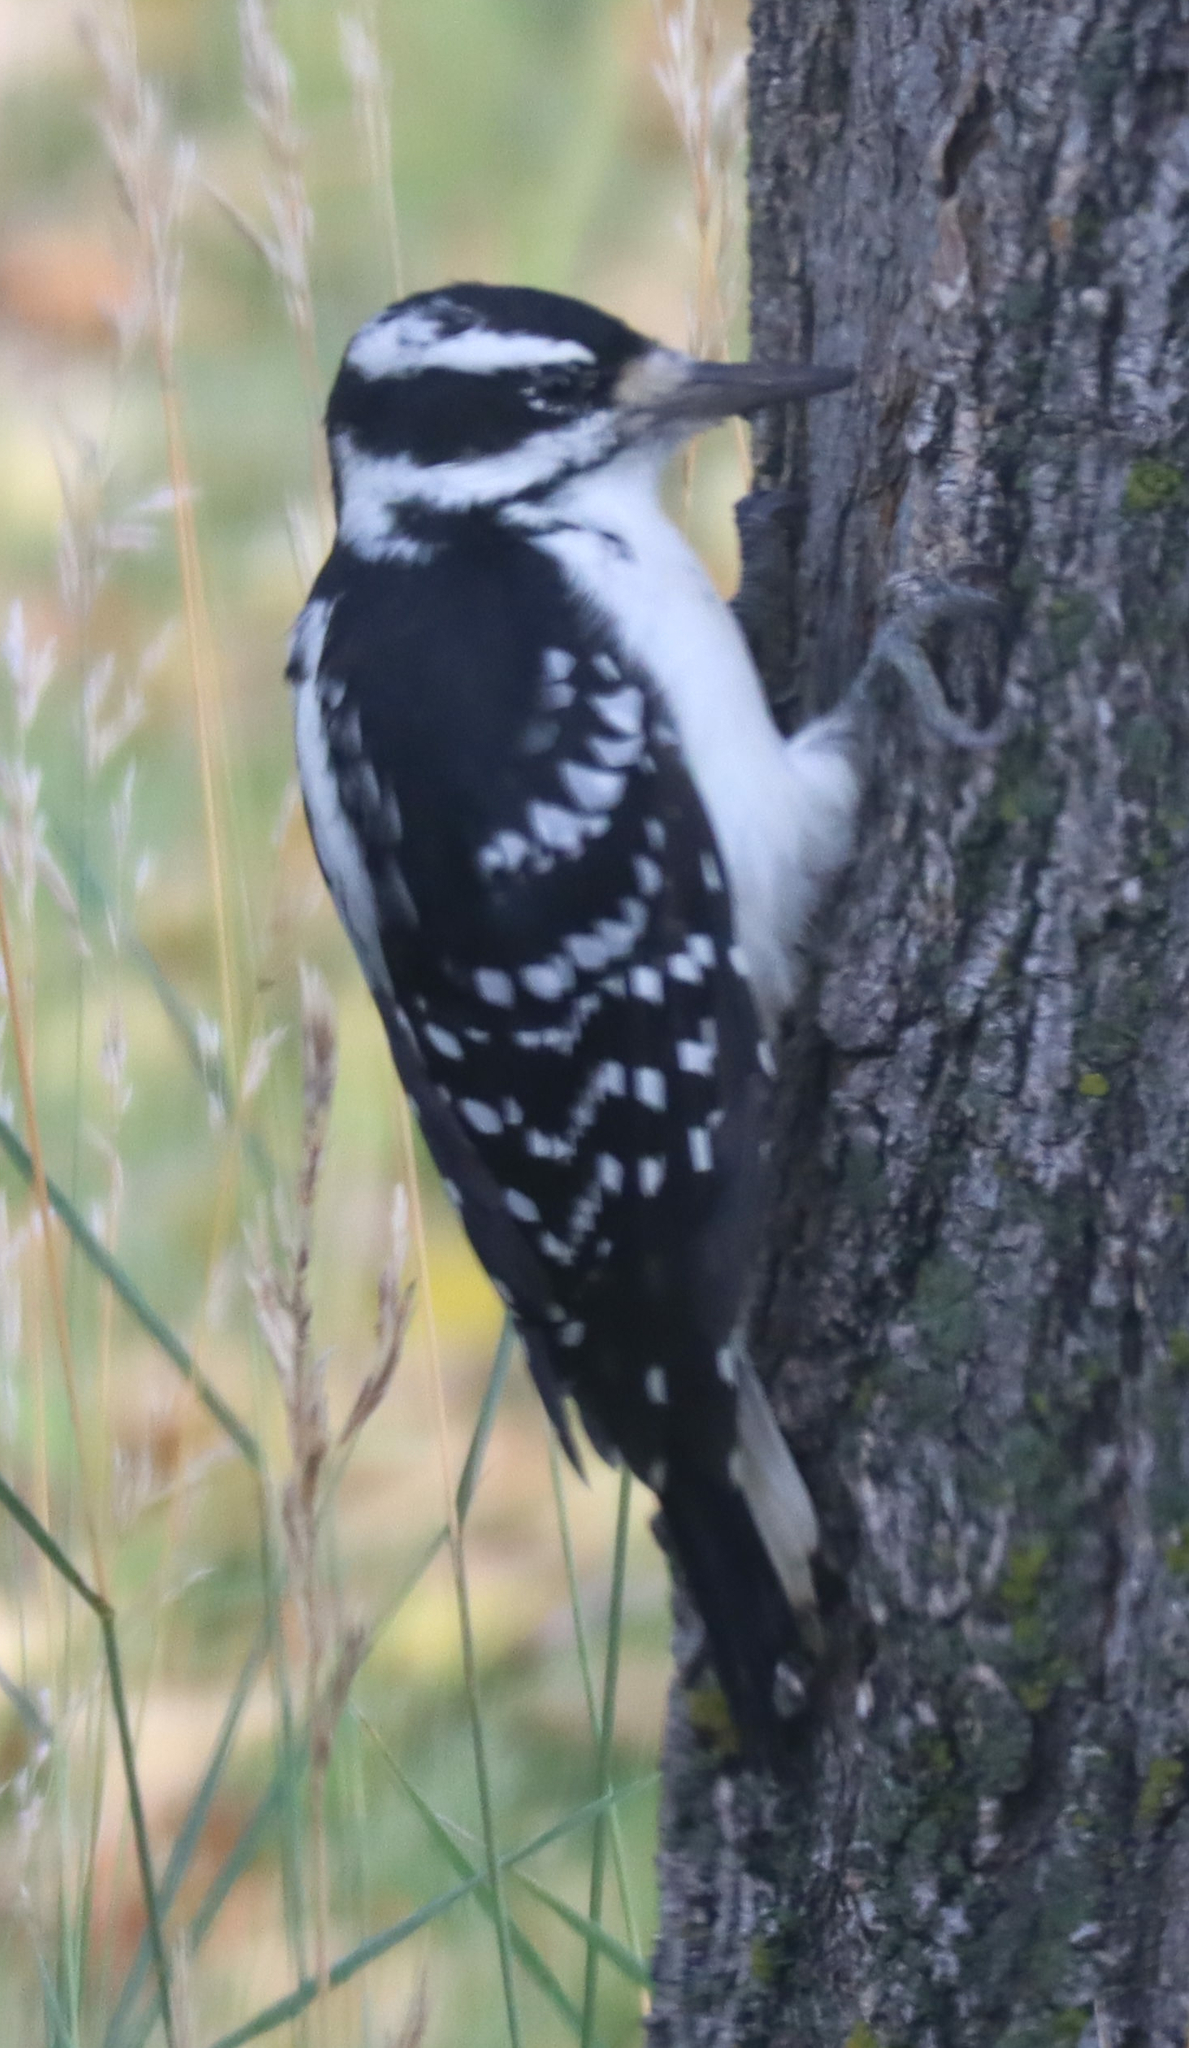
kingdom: Animalia
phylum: Chordata
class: Aves
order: Piciformes
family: Picidae
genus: Leuconotopicus
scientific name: Leuconotopicus villosus
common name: Hairy woodpecker
